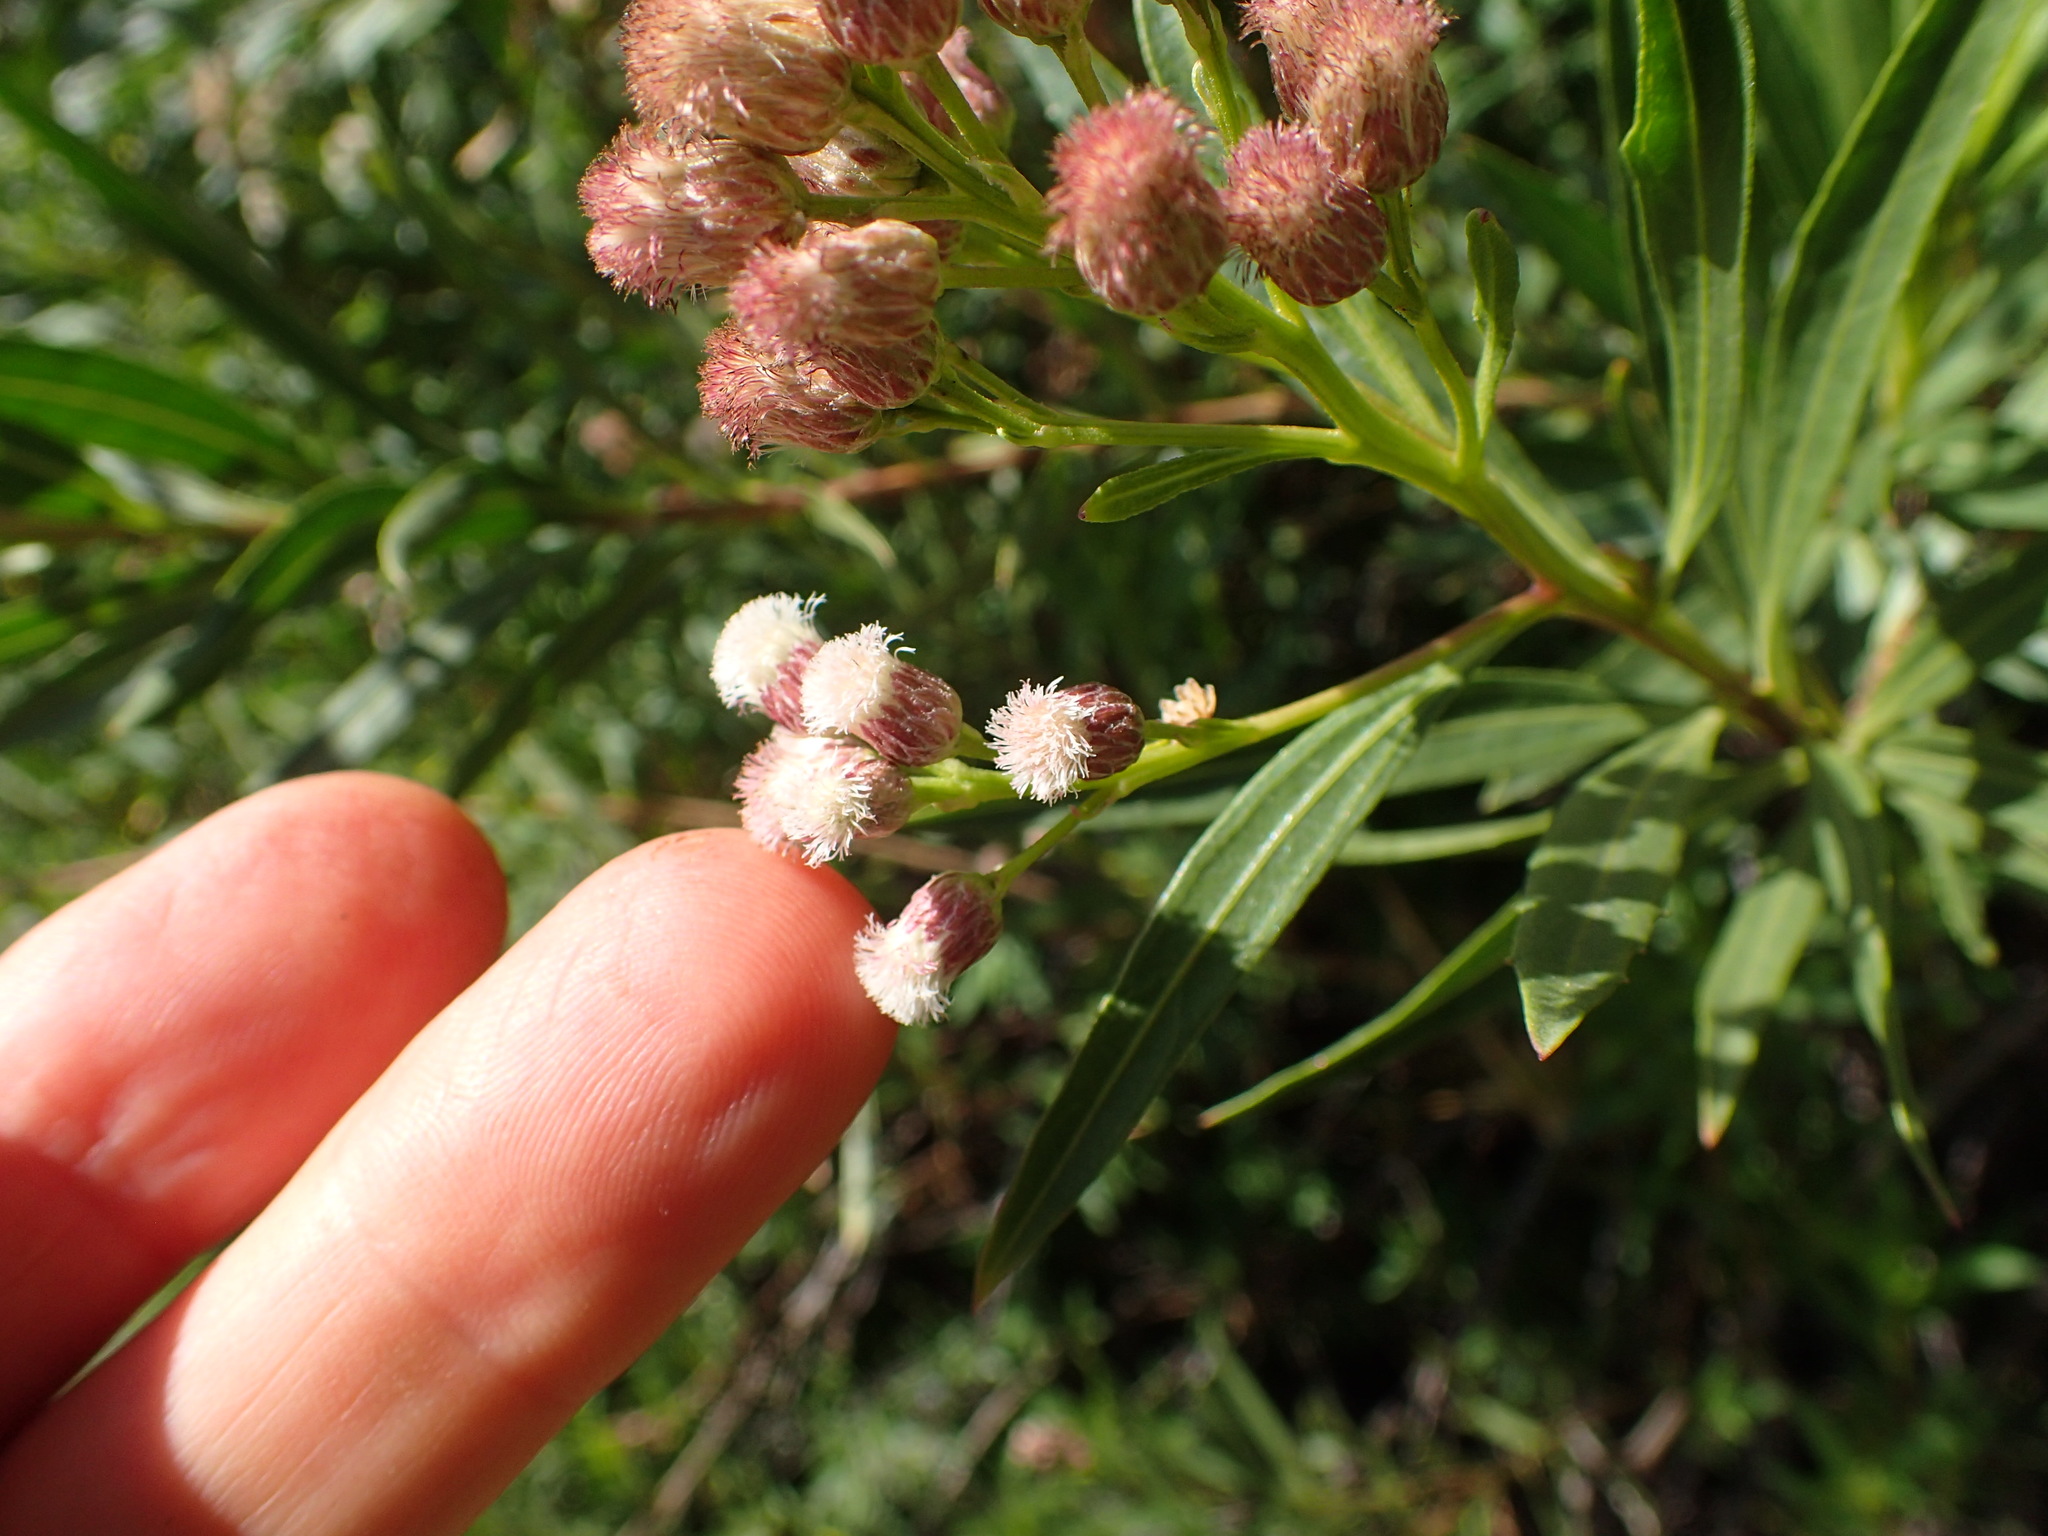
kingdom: Plantae
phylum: Tracheophyta
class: Magnoliopsida
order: Asterales
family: Asteraceae
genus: Baccharis
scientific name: Baccharis salicifolia
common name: Sticky baccharis
